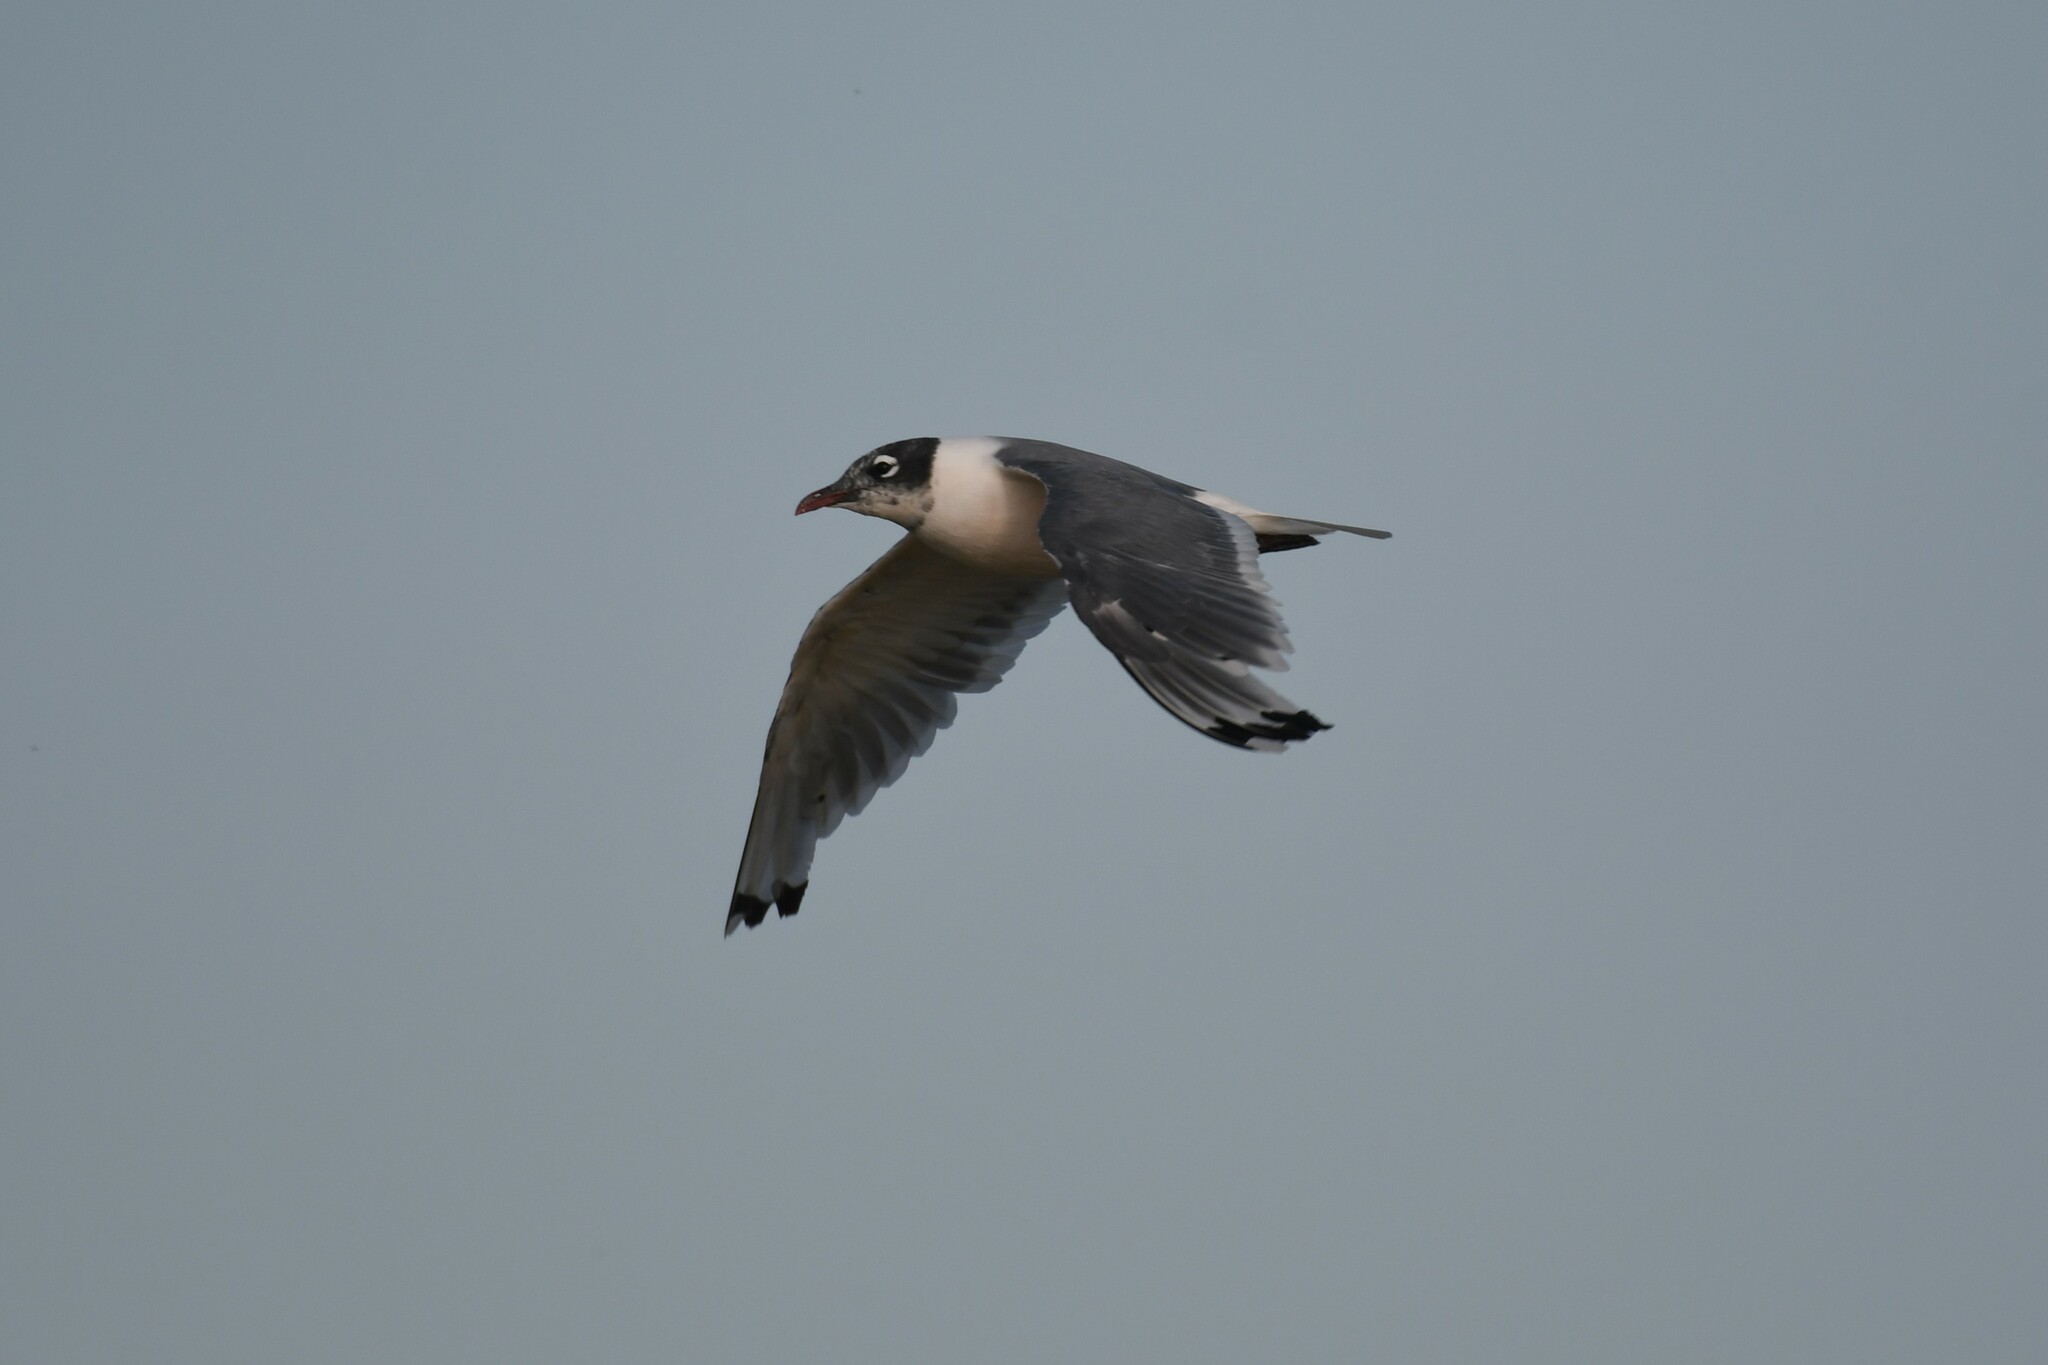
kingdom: Animalia
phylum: Chordata
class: Aves
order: Charadriiformes
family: Laridae
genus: Leucophaeus
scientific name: Leucophaeus pipixcan
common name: Franklin's gull
